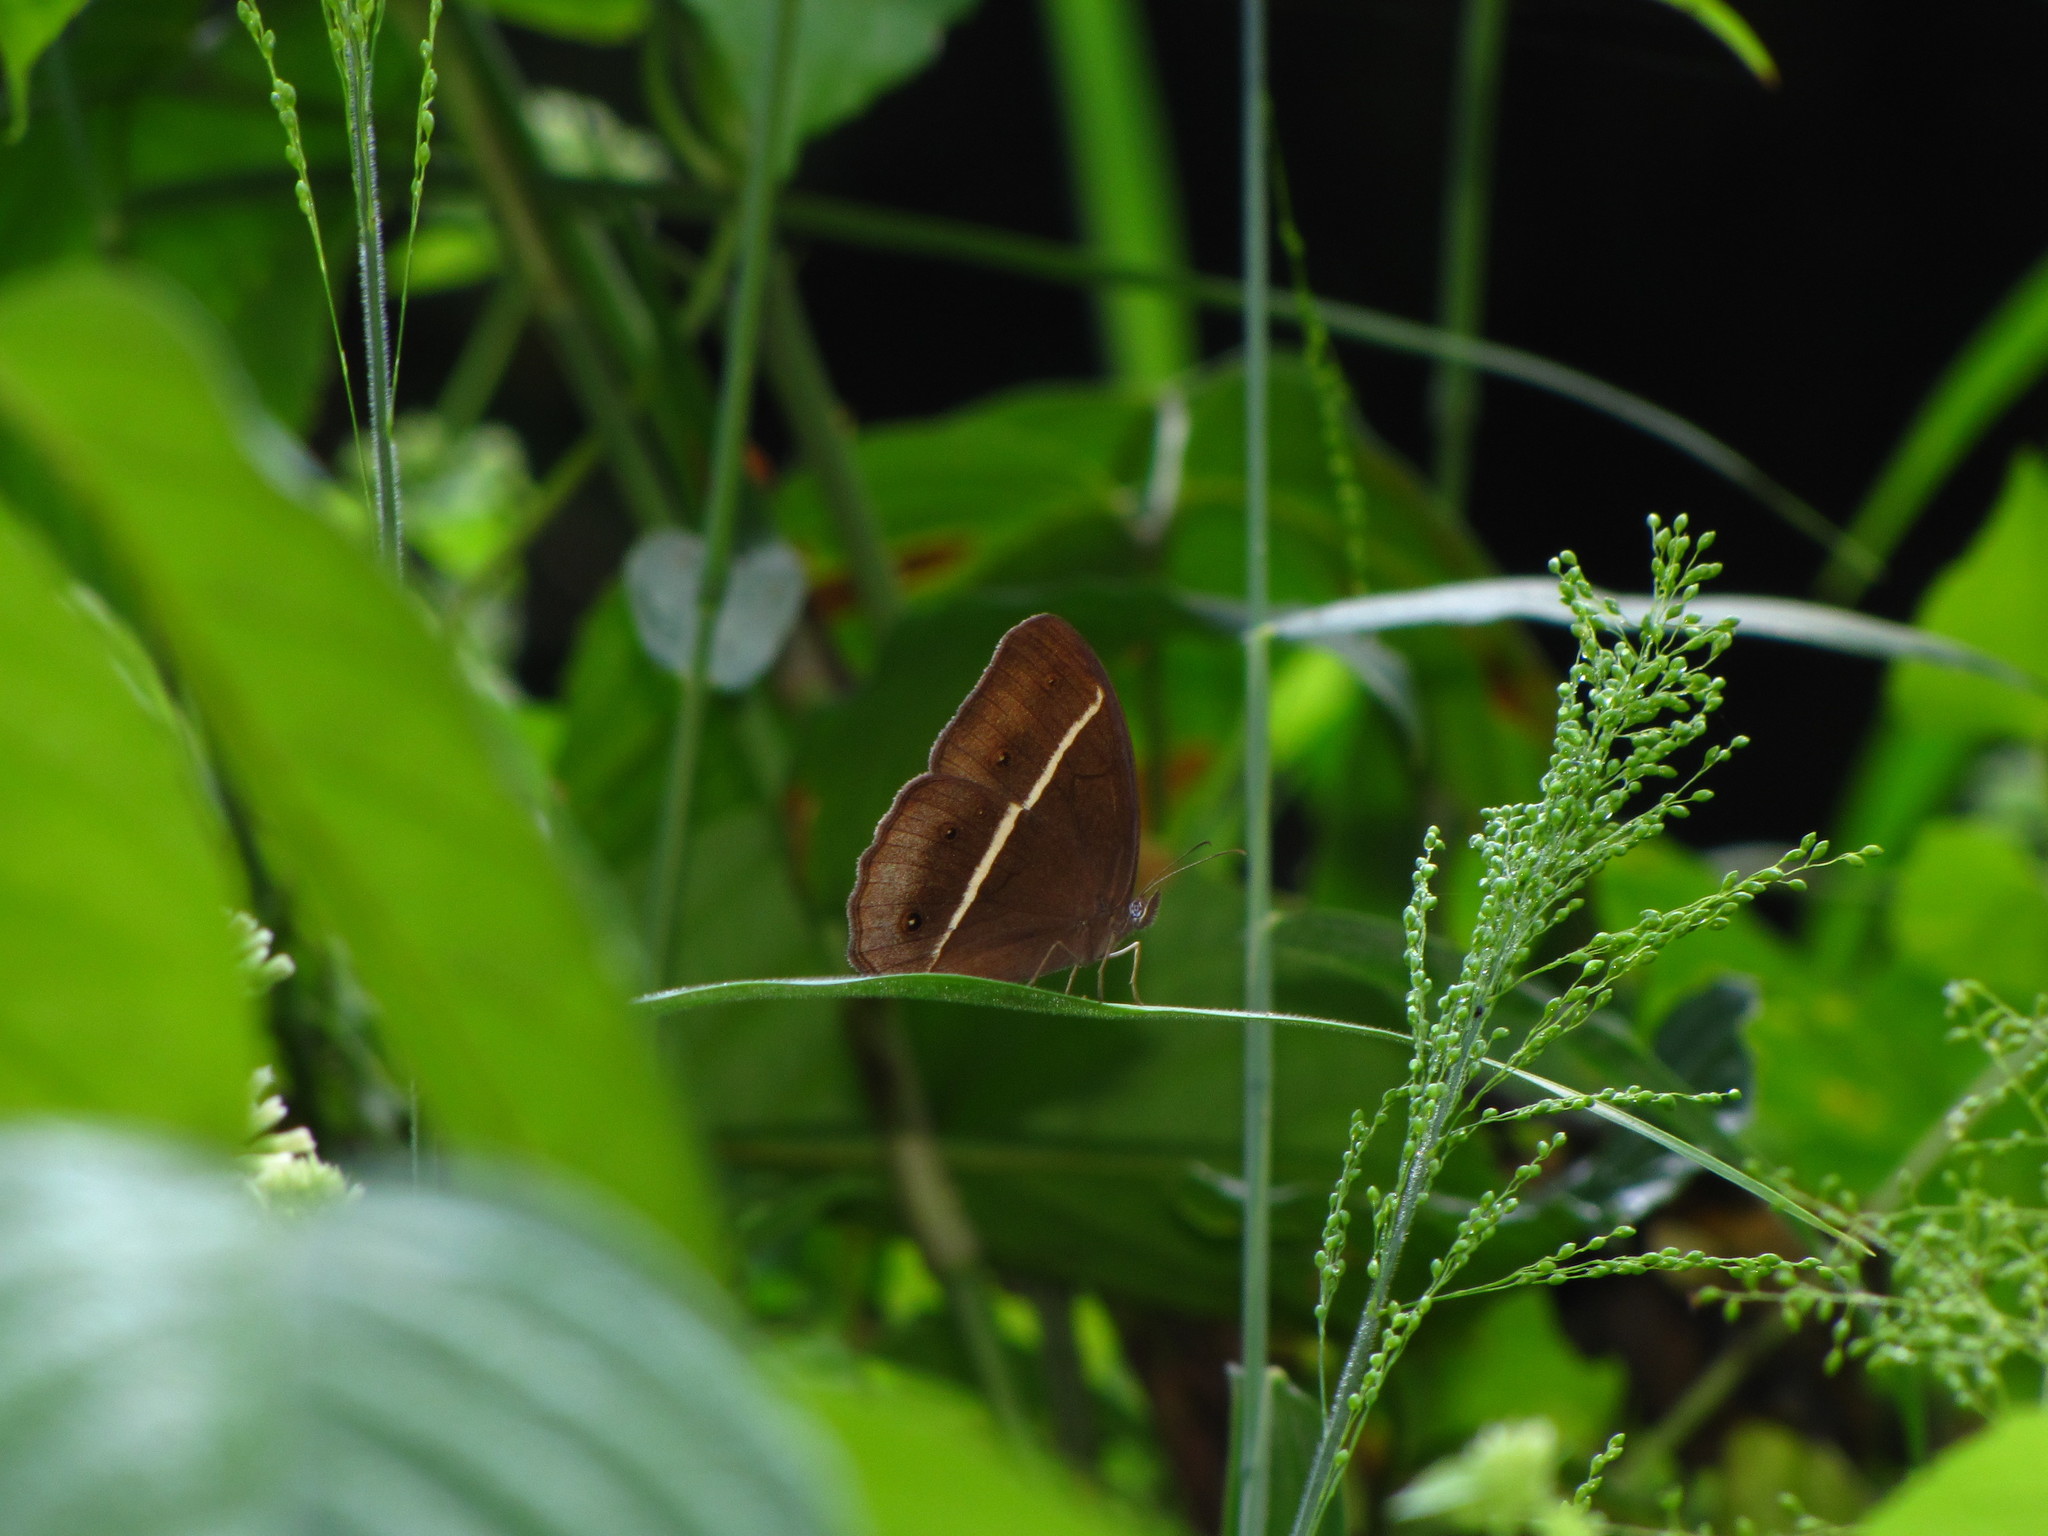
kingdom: Animalia
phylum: Arthropoda
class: Insecta
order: Lepidoptera
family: Nymphalidae
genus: Orsotriaena
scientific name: Orsotriaena medus
